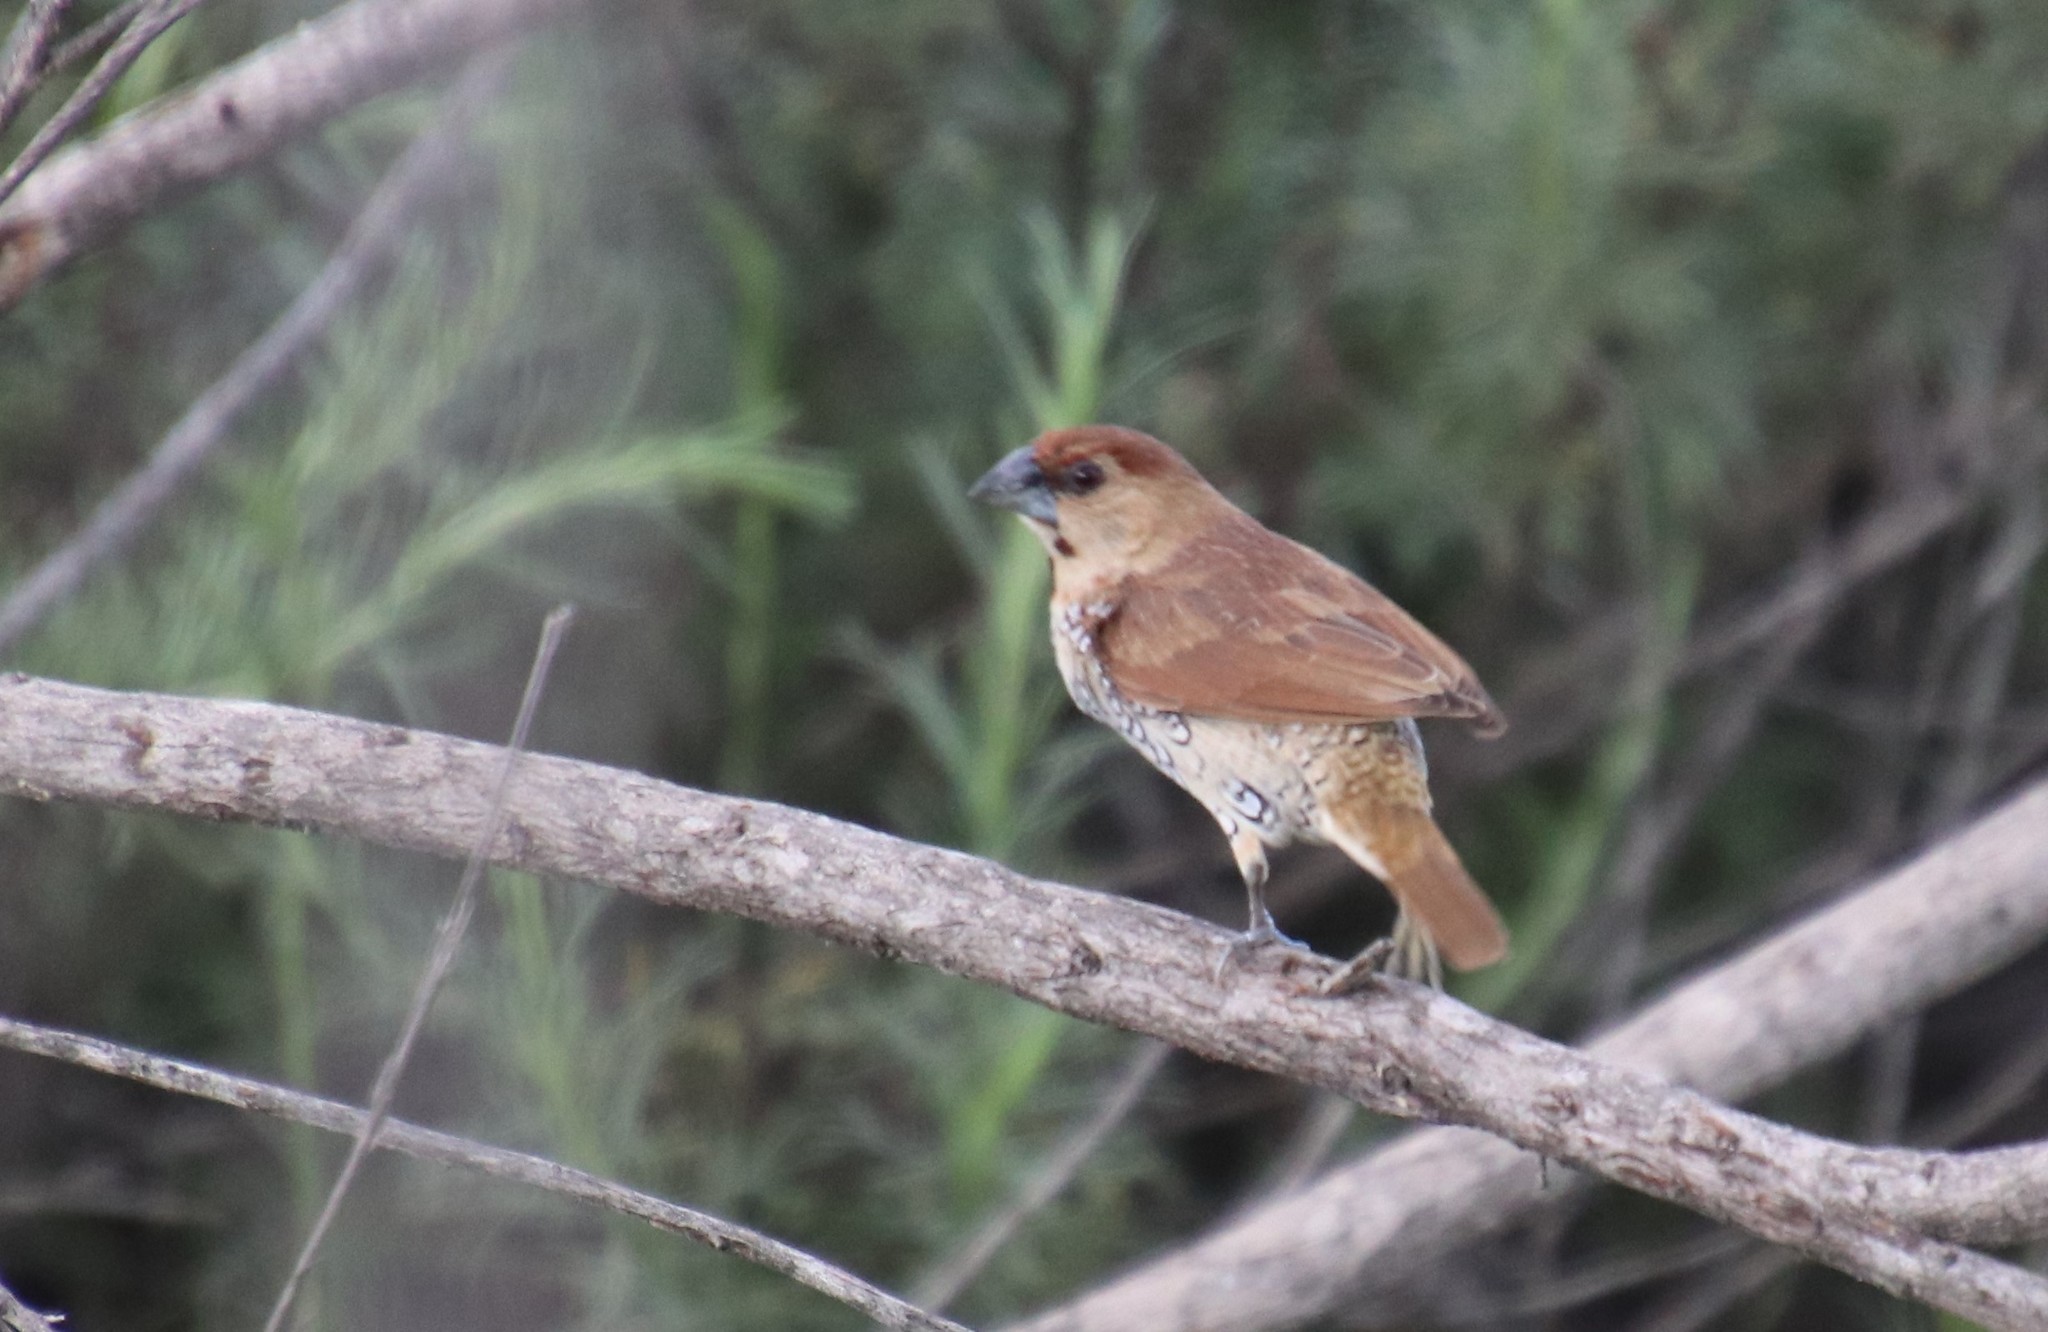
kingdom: Animalia
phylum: Chordata
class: Aves
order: Passeriformes
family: Estrildidae
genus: Lonchura
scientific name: Lonchura punctulata
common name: Scaly-breasted munia
